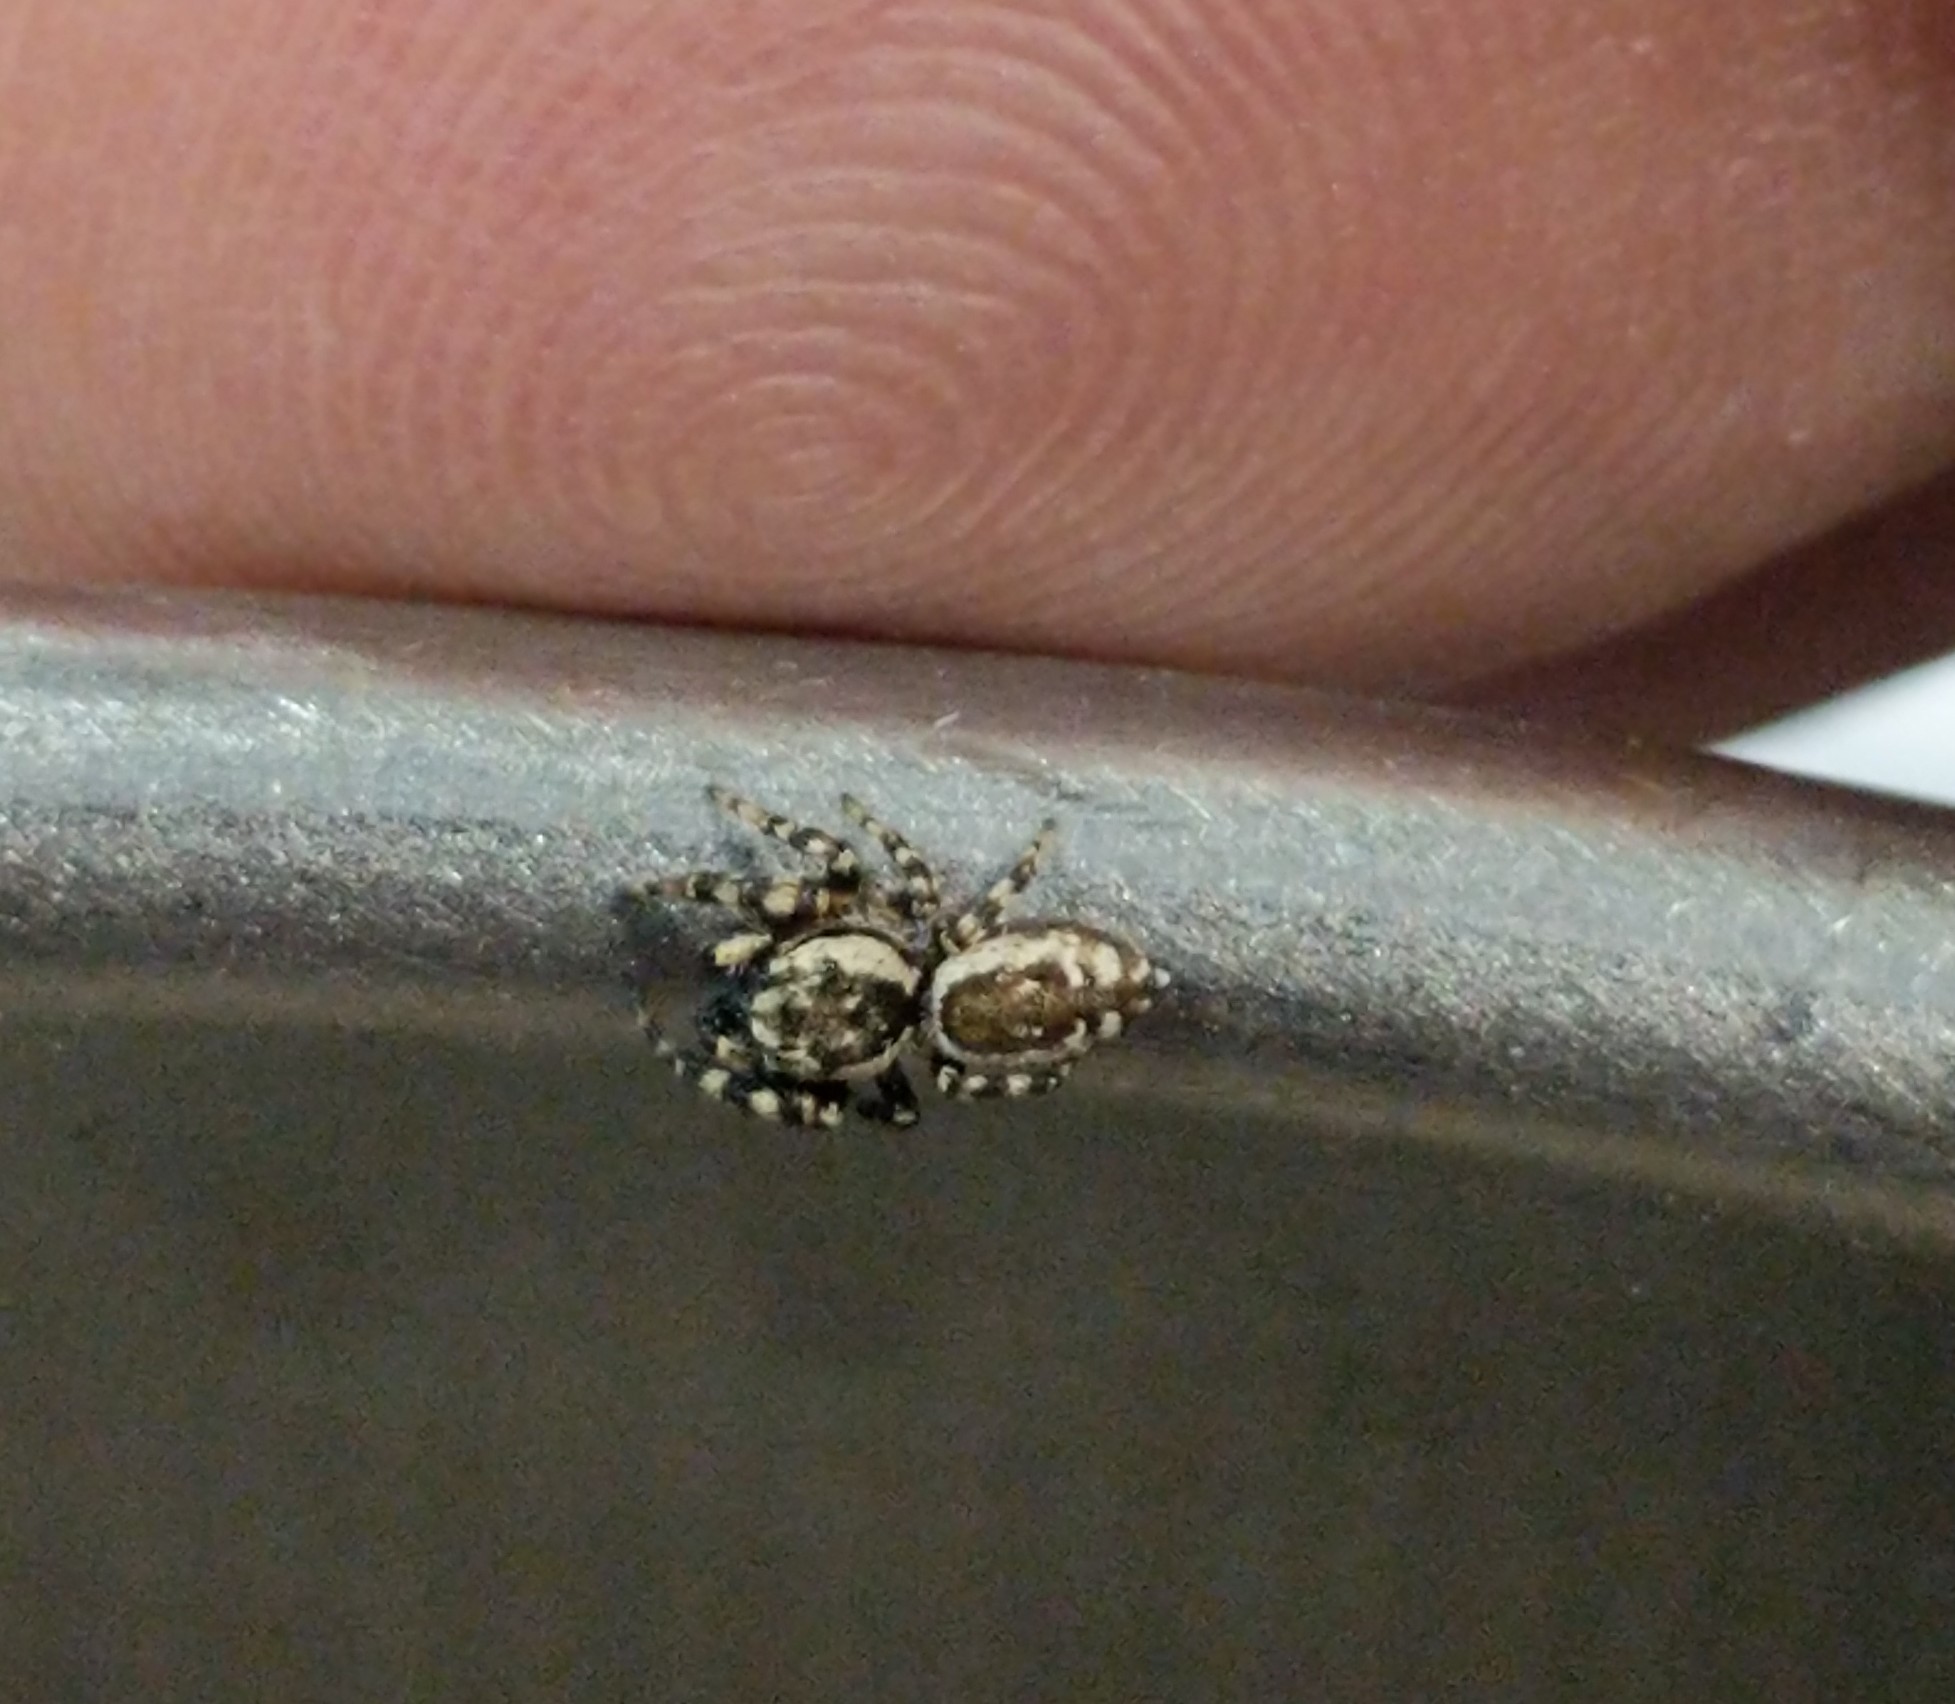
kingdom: Animalia
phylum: Arthropoda
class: Arachnida
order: Araneae
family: Salticidae
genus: Pelegrina
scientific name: Pelegrina galathea
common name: Jumping spiders
